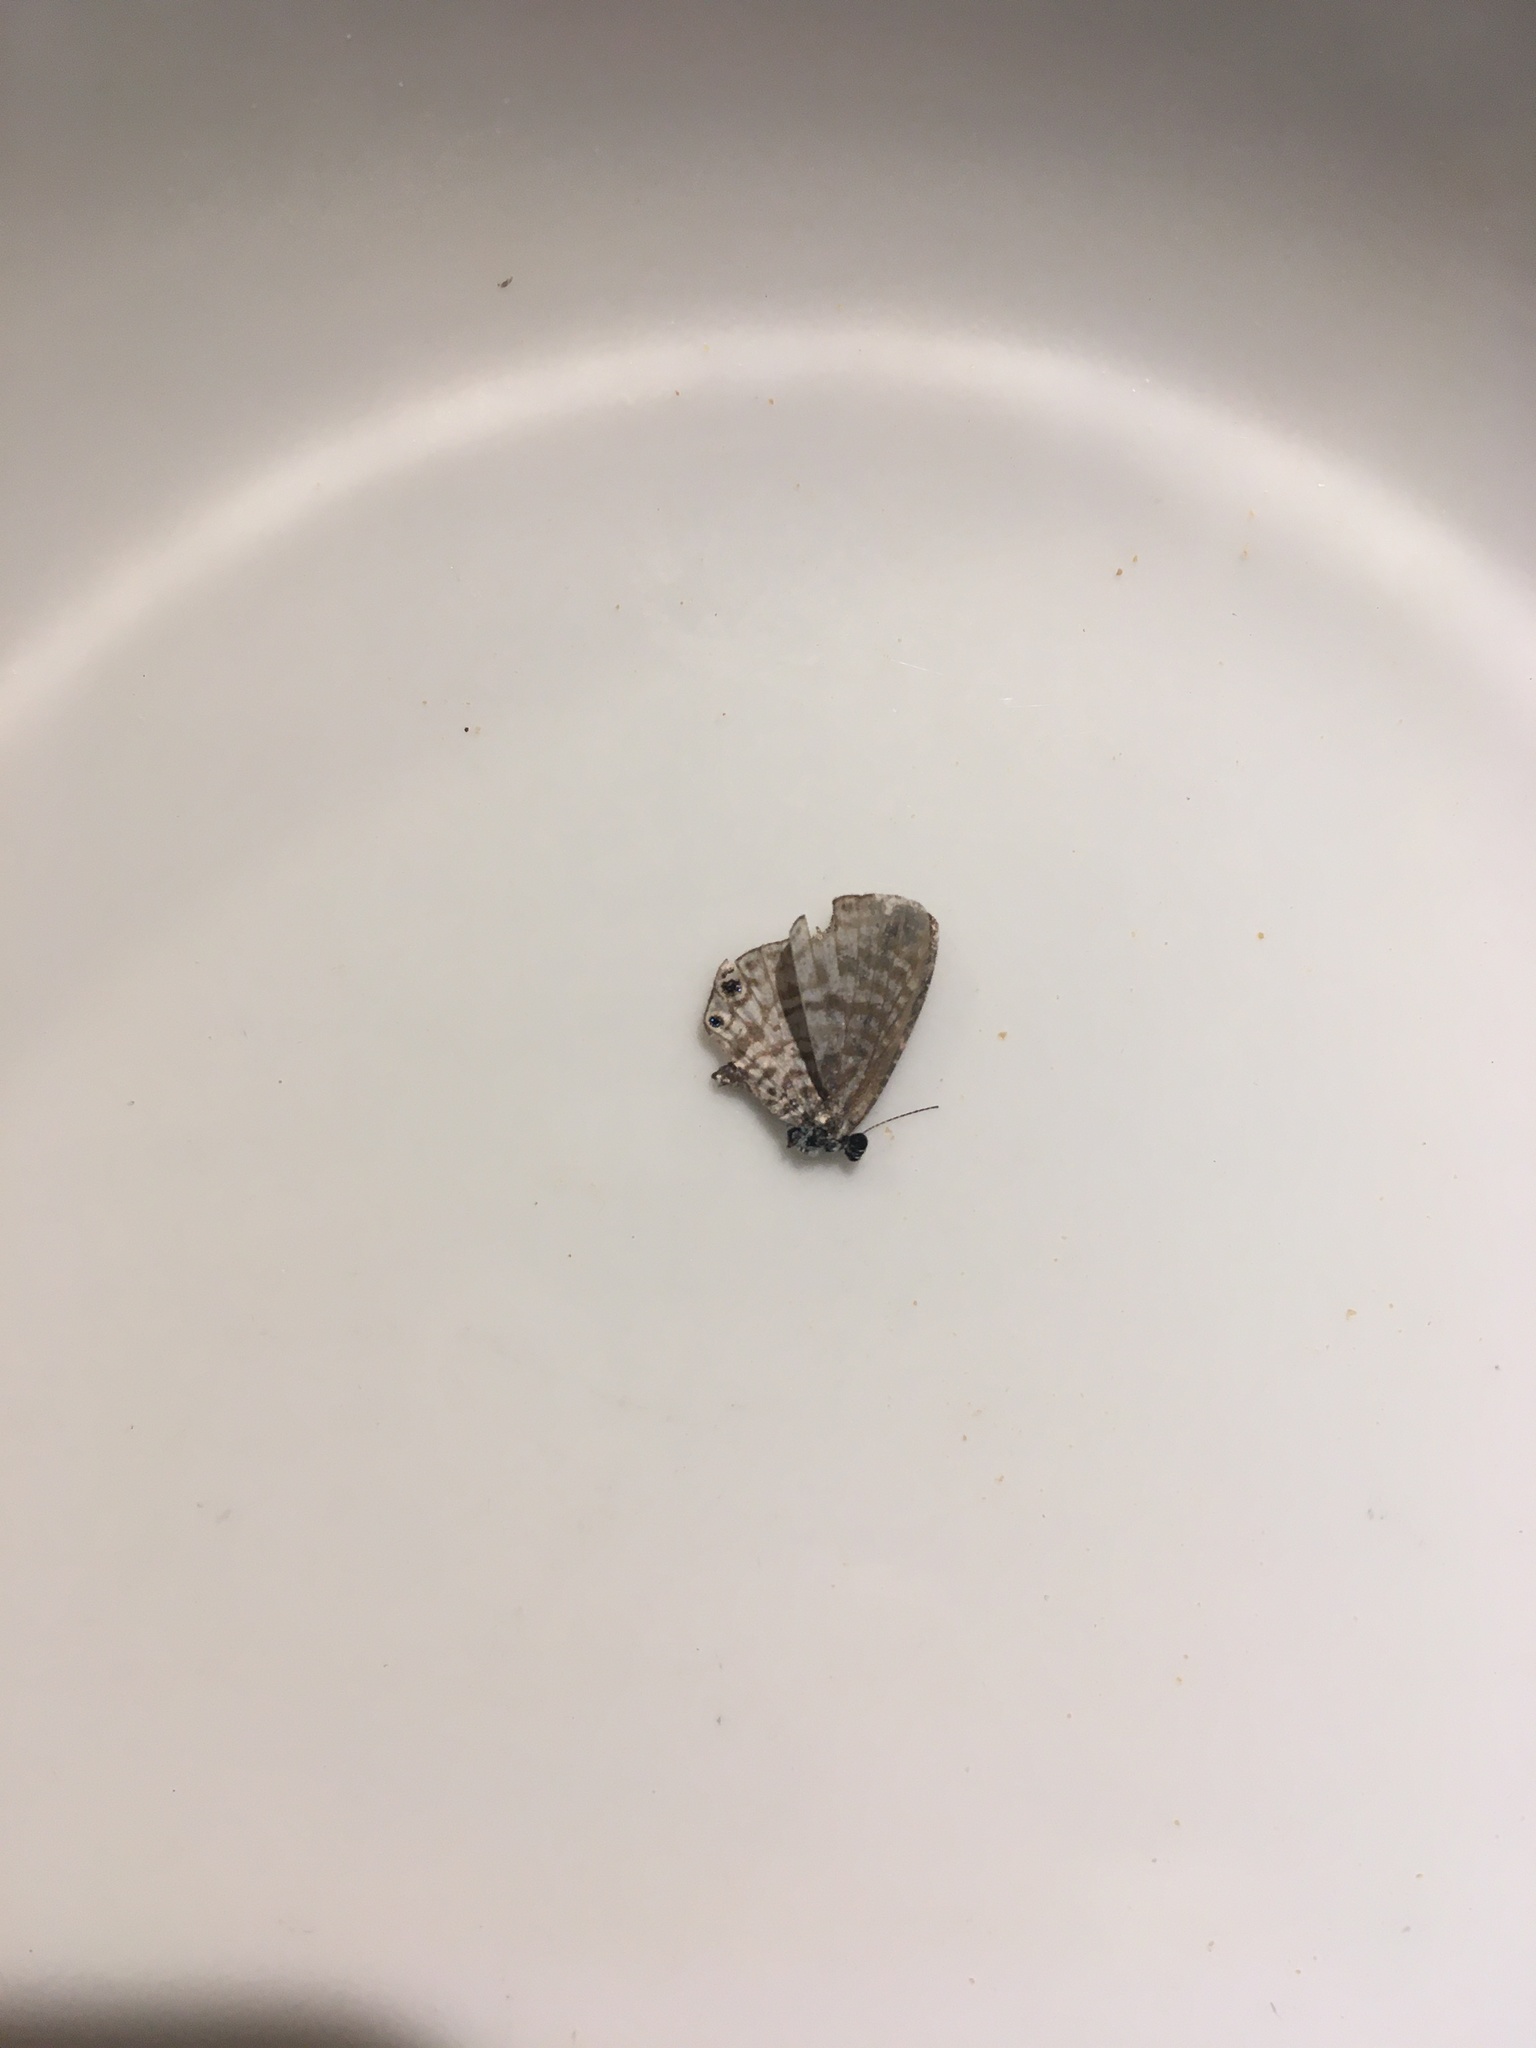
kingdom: Animalia
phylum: Arthropoda
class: Insecta
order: Lepidoptera
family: Lycaenidae
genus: Leptotes
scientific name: Leptotes marina
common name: Marine blue
